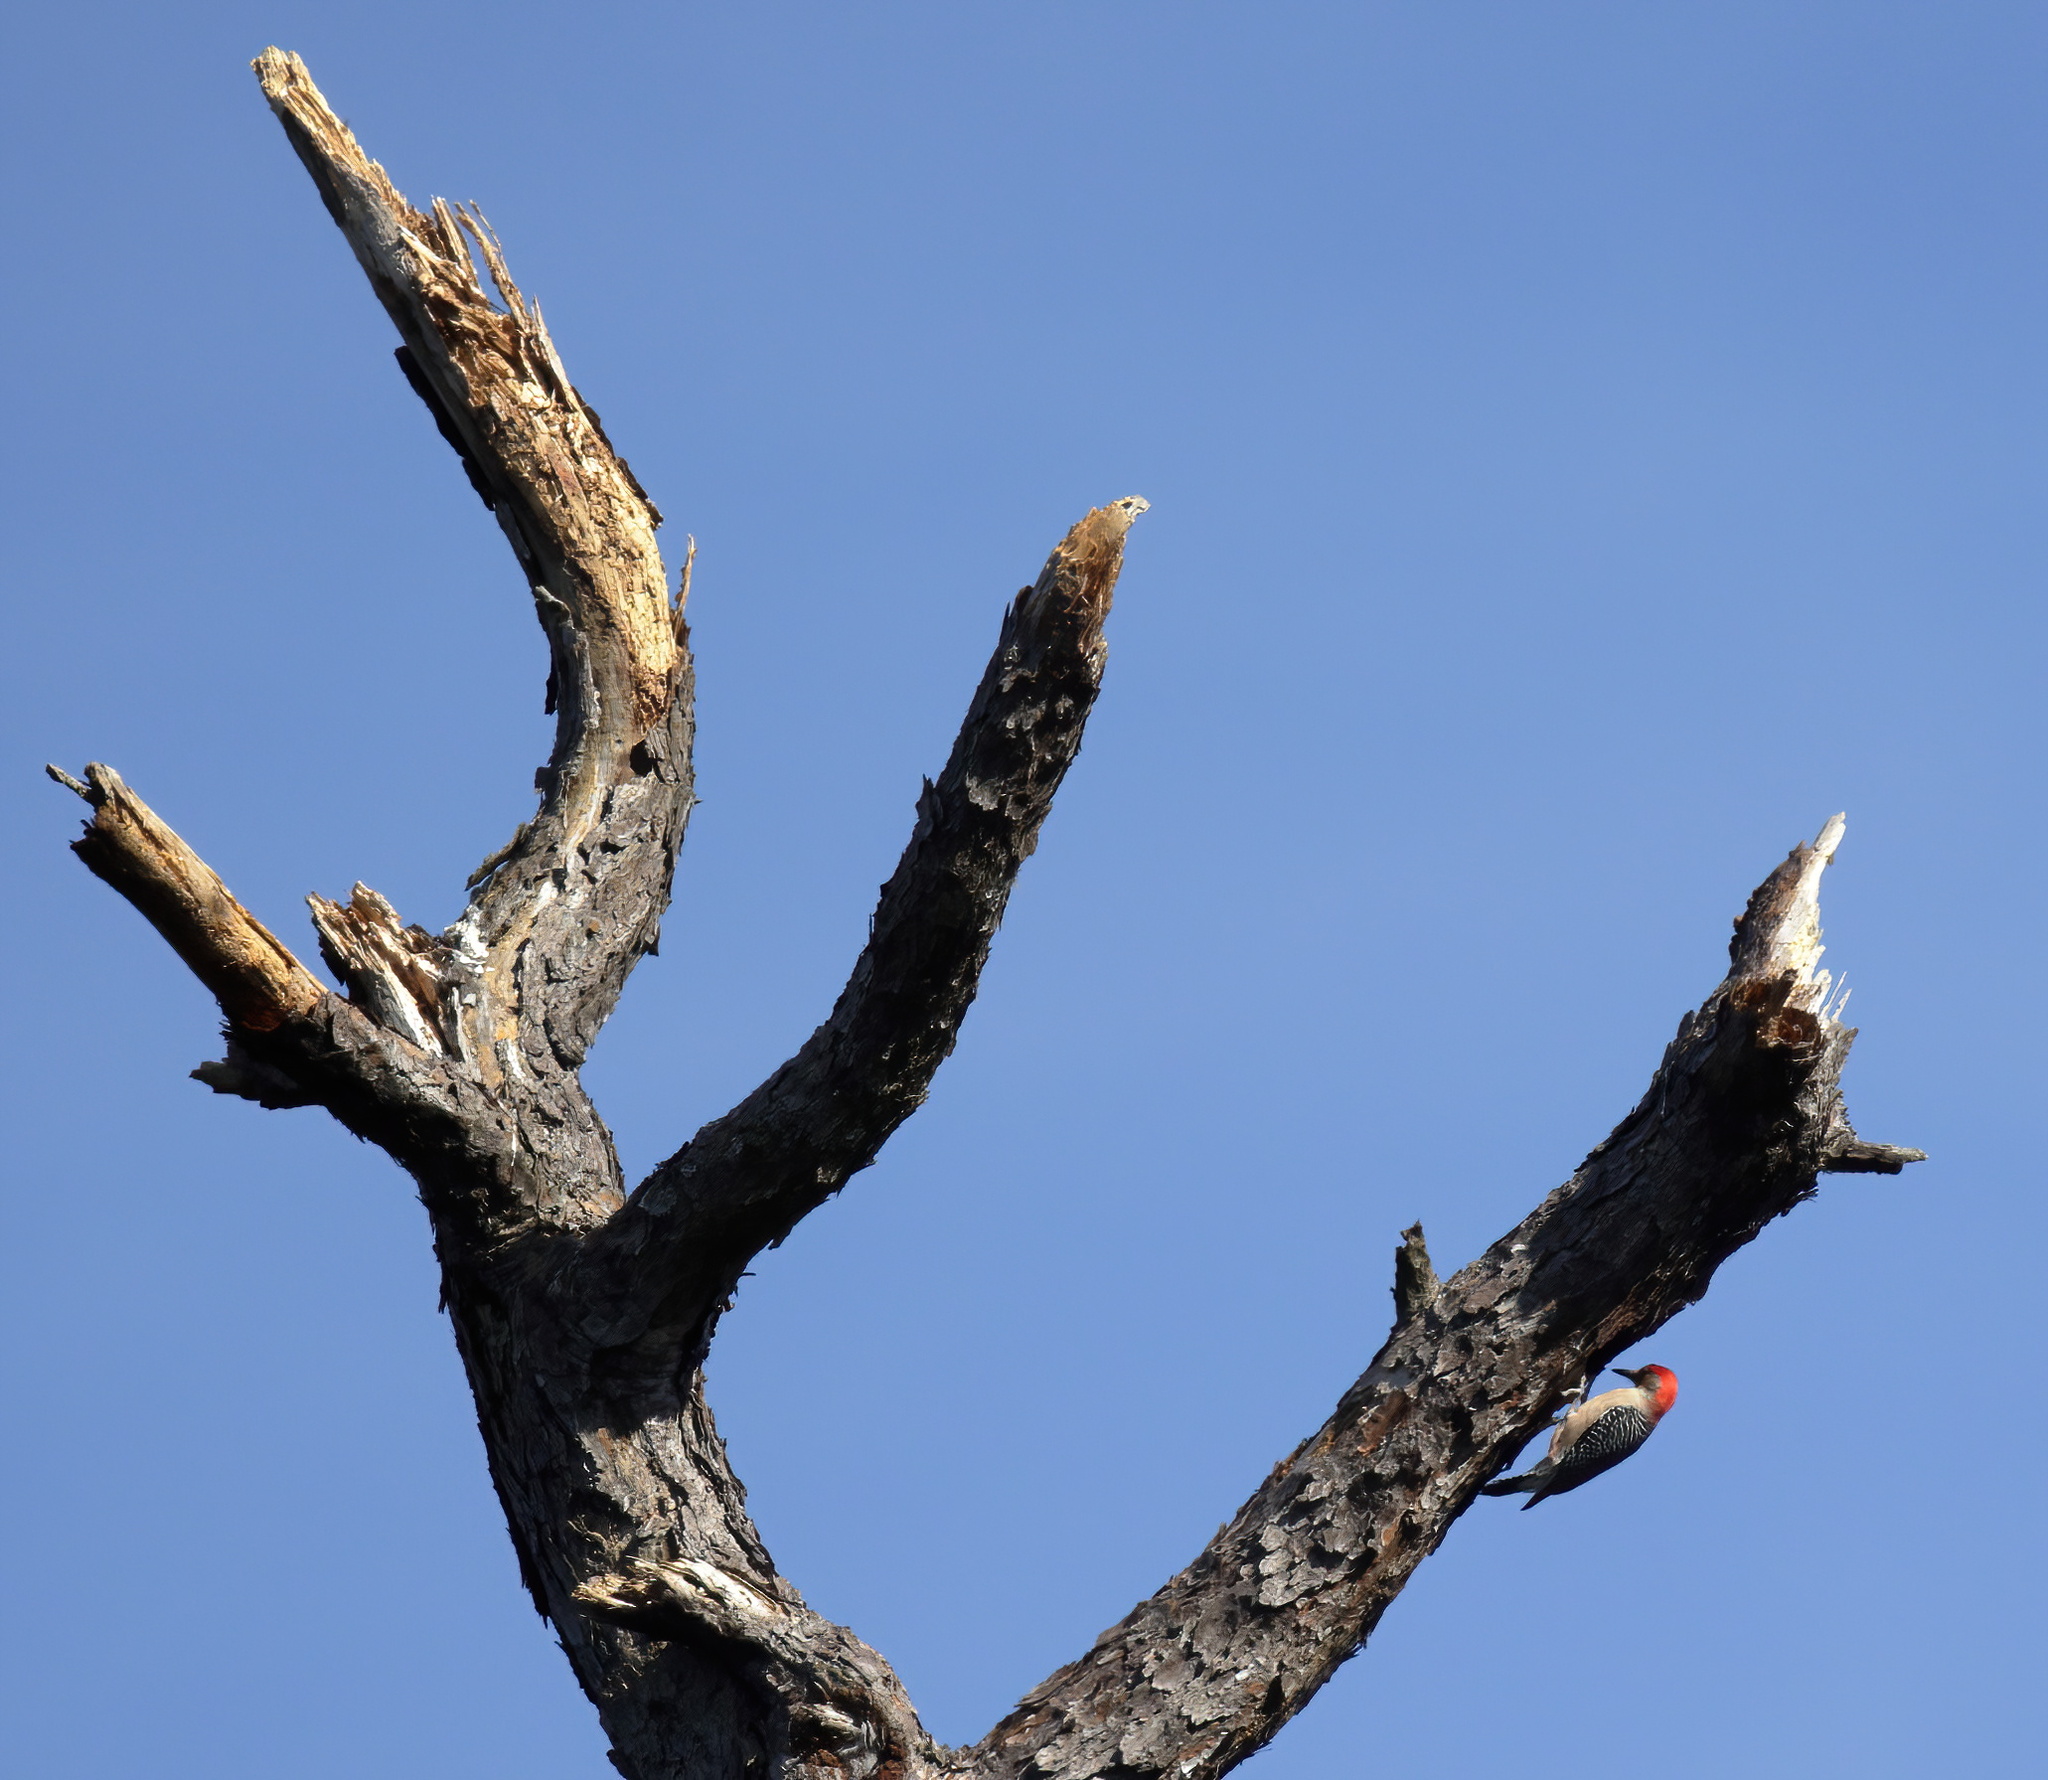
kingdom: Animalia
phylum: Chordata
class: Aves
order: Piciformes
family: Picidae
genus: Melanerpes
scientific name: Melanerpes carolinus
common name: Red-bellied woodpecker
